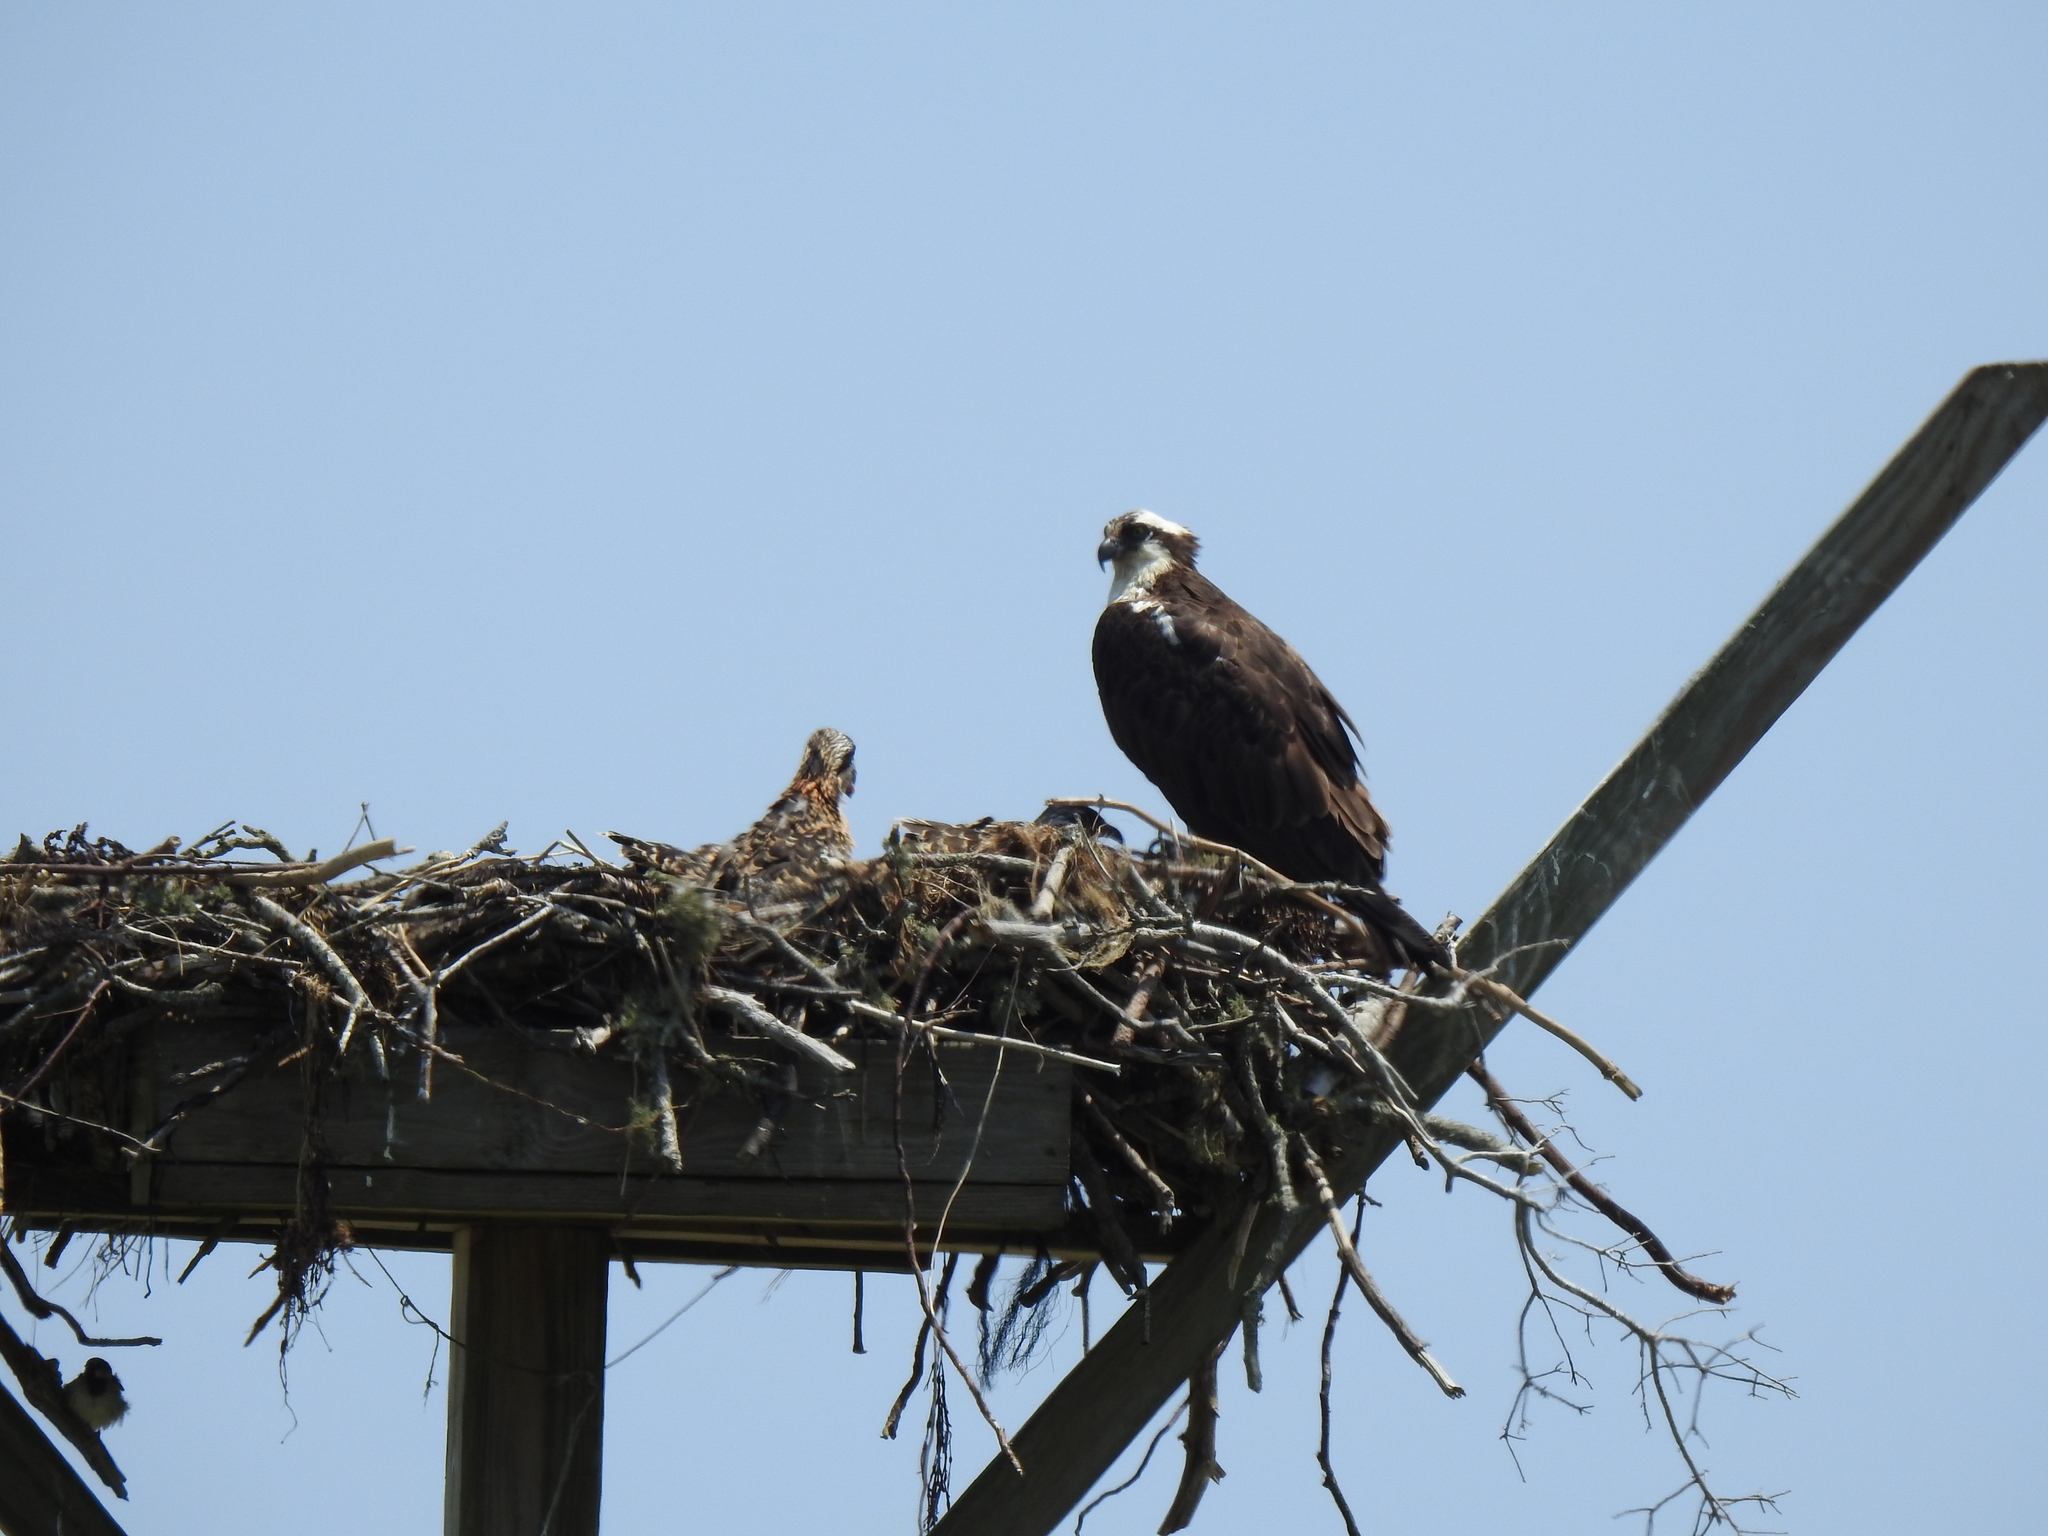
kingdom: Animalia
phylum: Chordata
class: Aves
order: Accipitriformes
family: Pandionidae
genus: Pandion
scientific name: Pandion haliaetus
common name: Osprey
